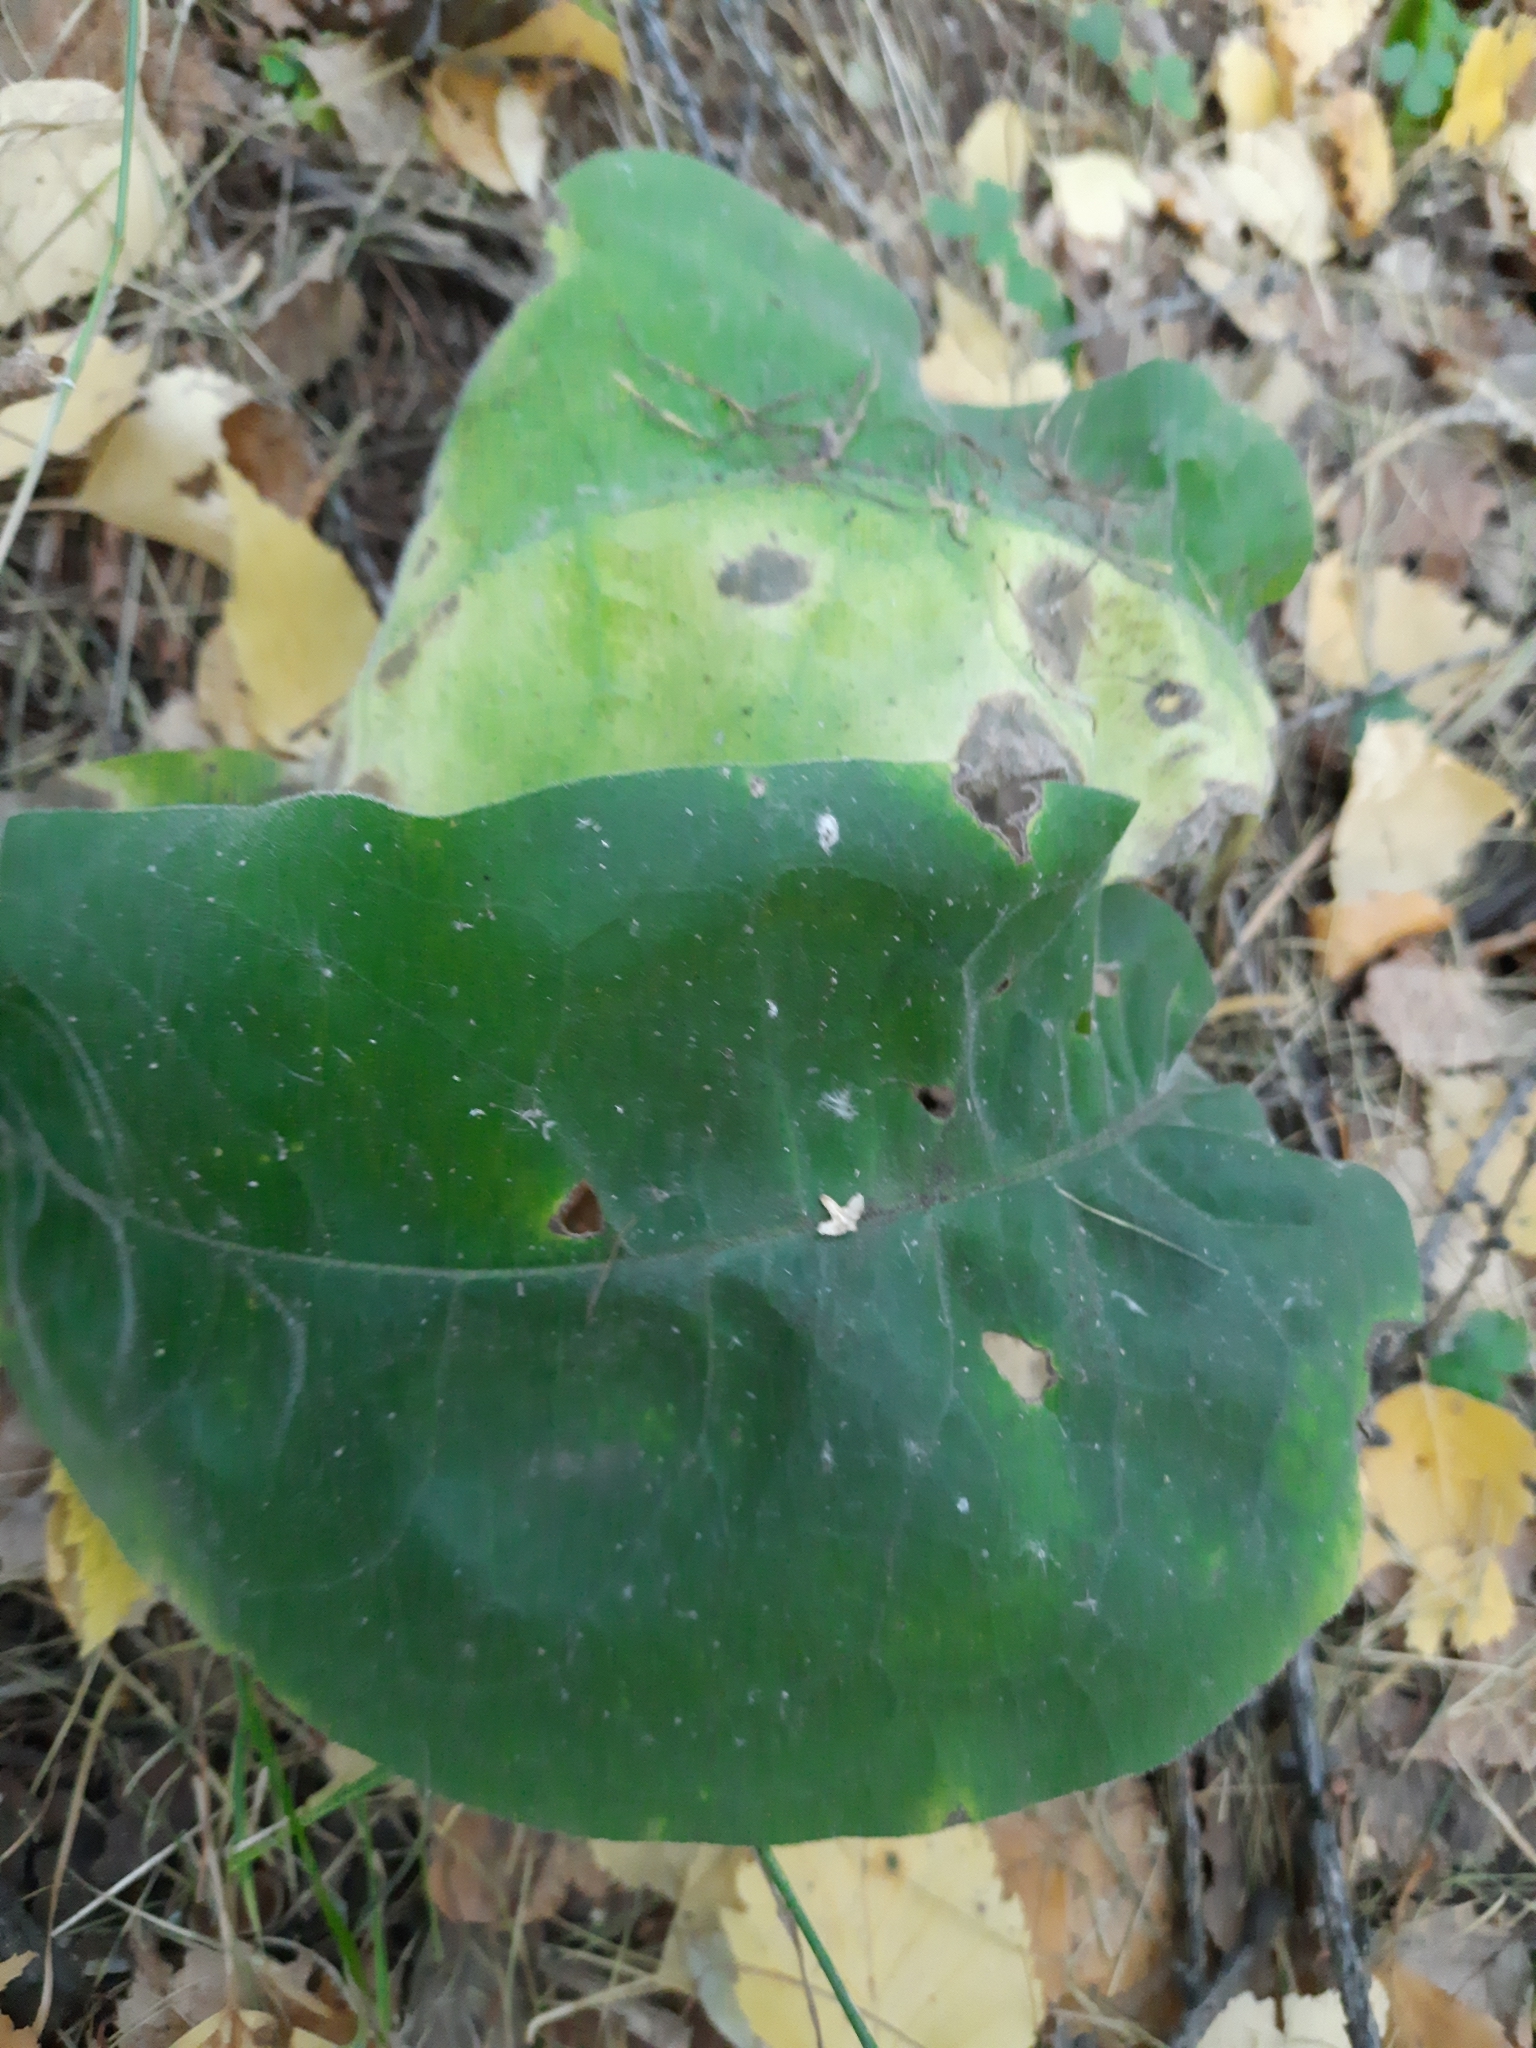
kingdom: Plantae
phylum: Tracheophyta
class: Magnoliopsida
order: Boraginales
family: Boraginaceae
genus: Pulmonaria
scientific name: Pulmonaria mollis
